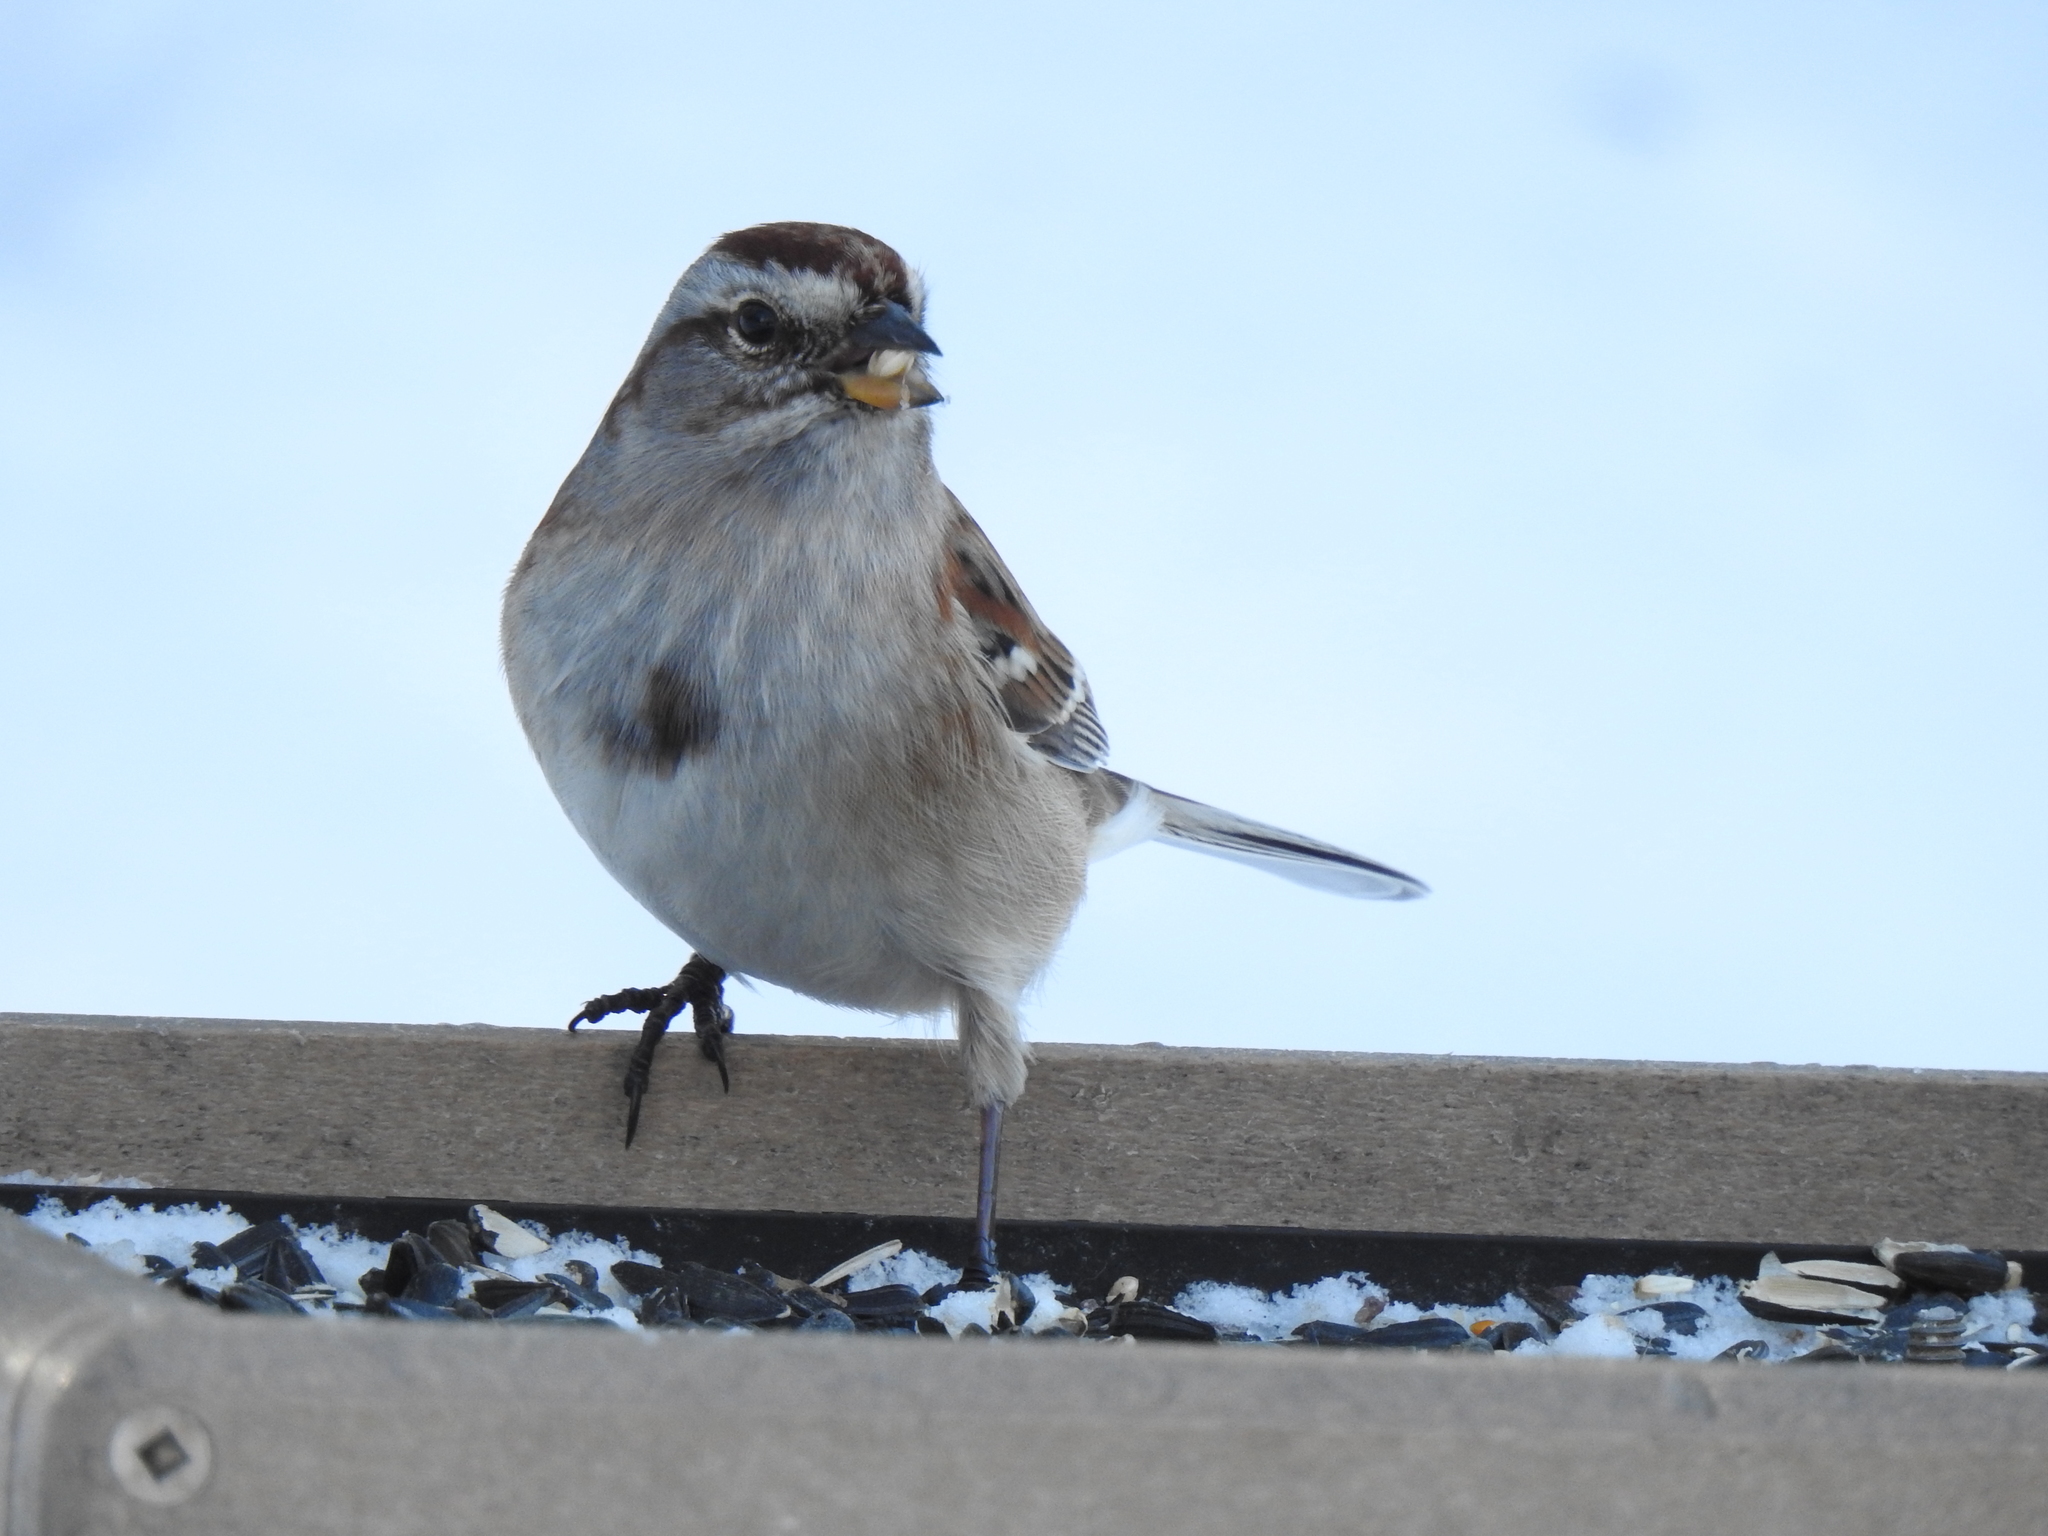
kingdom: Animalia
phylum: Chordata
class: Aves
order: Passeriformes
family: Passerellidae
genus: Spizelloides
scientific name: Spizelloides arborea
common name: American tree sparrow
